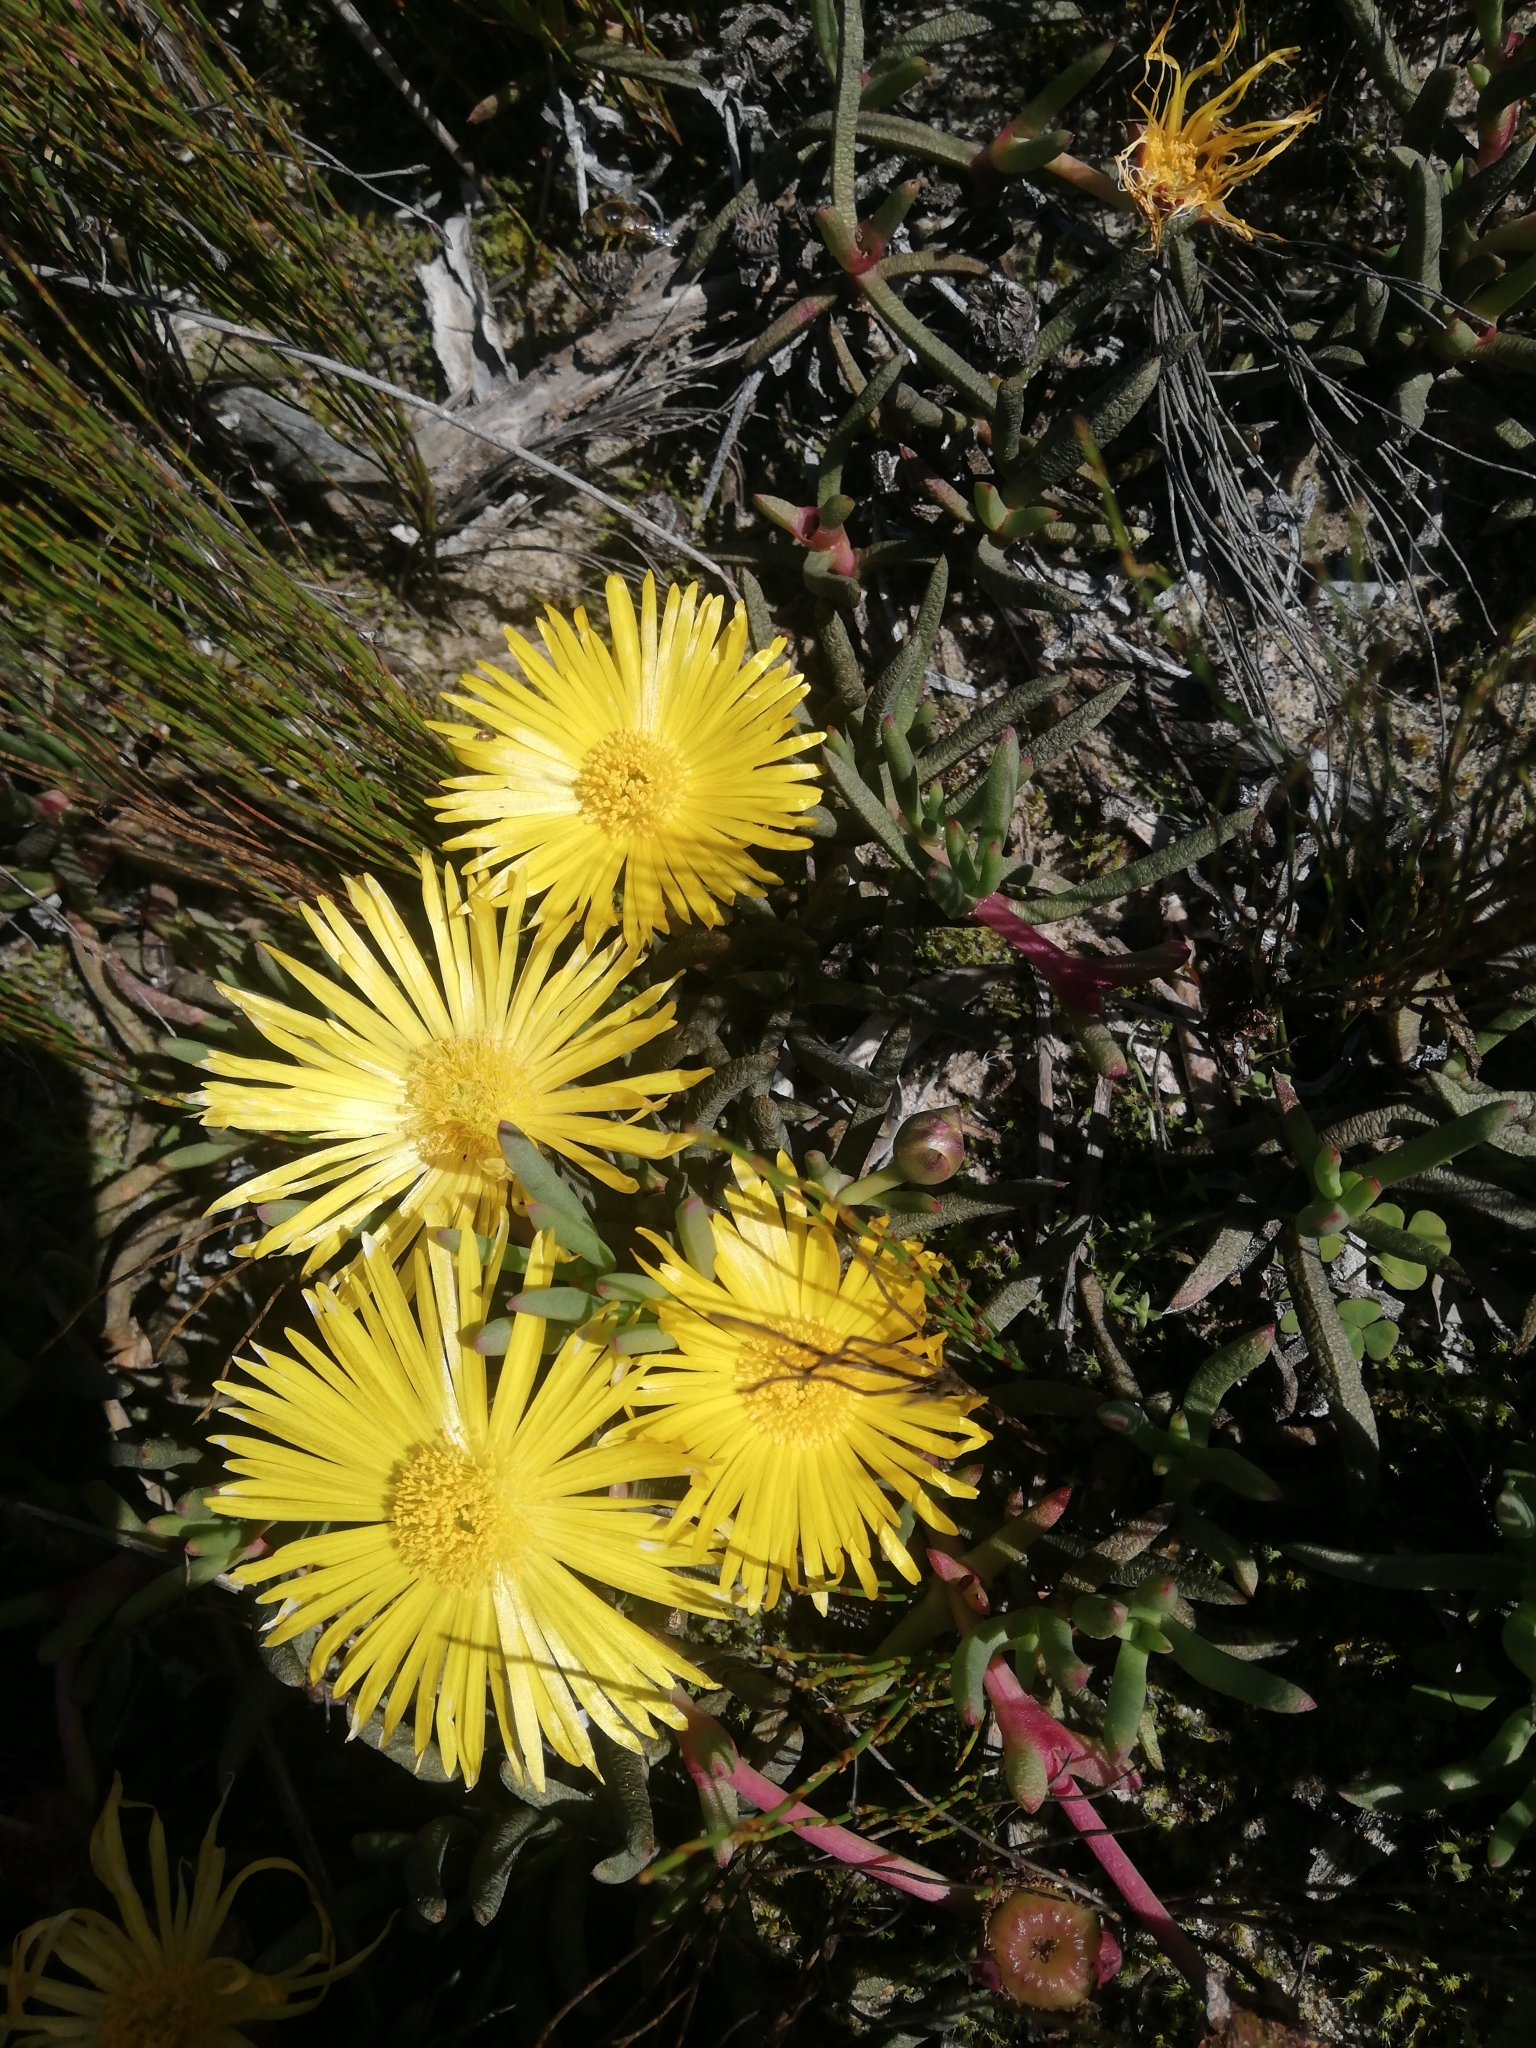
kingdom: Plantae
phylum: Tracheophyta
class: Magnoliopsida
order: Caryophyllales
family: Aizoaceae
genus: Jordaaniella
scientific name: Jordaaniella dubia
